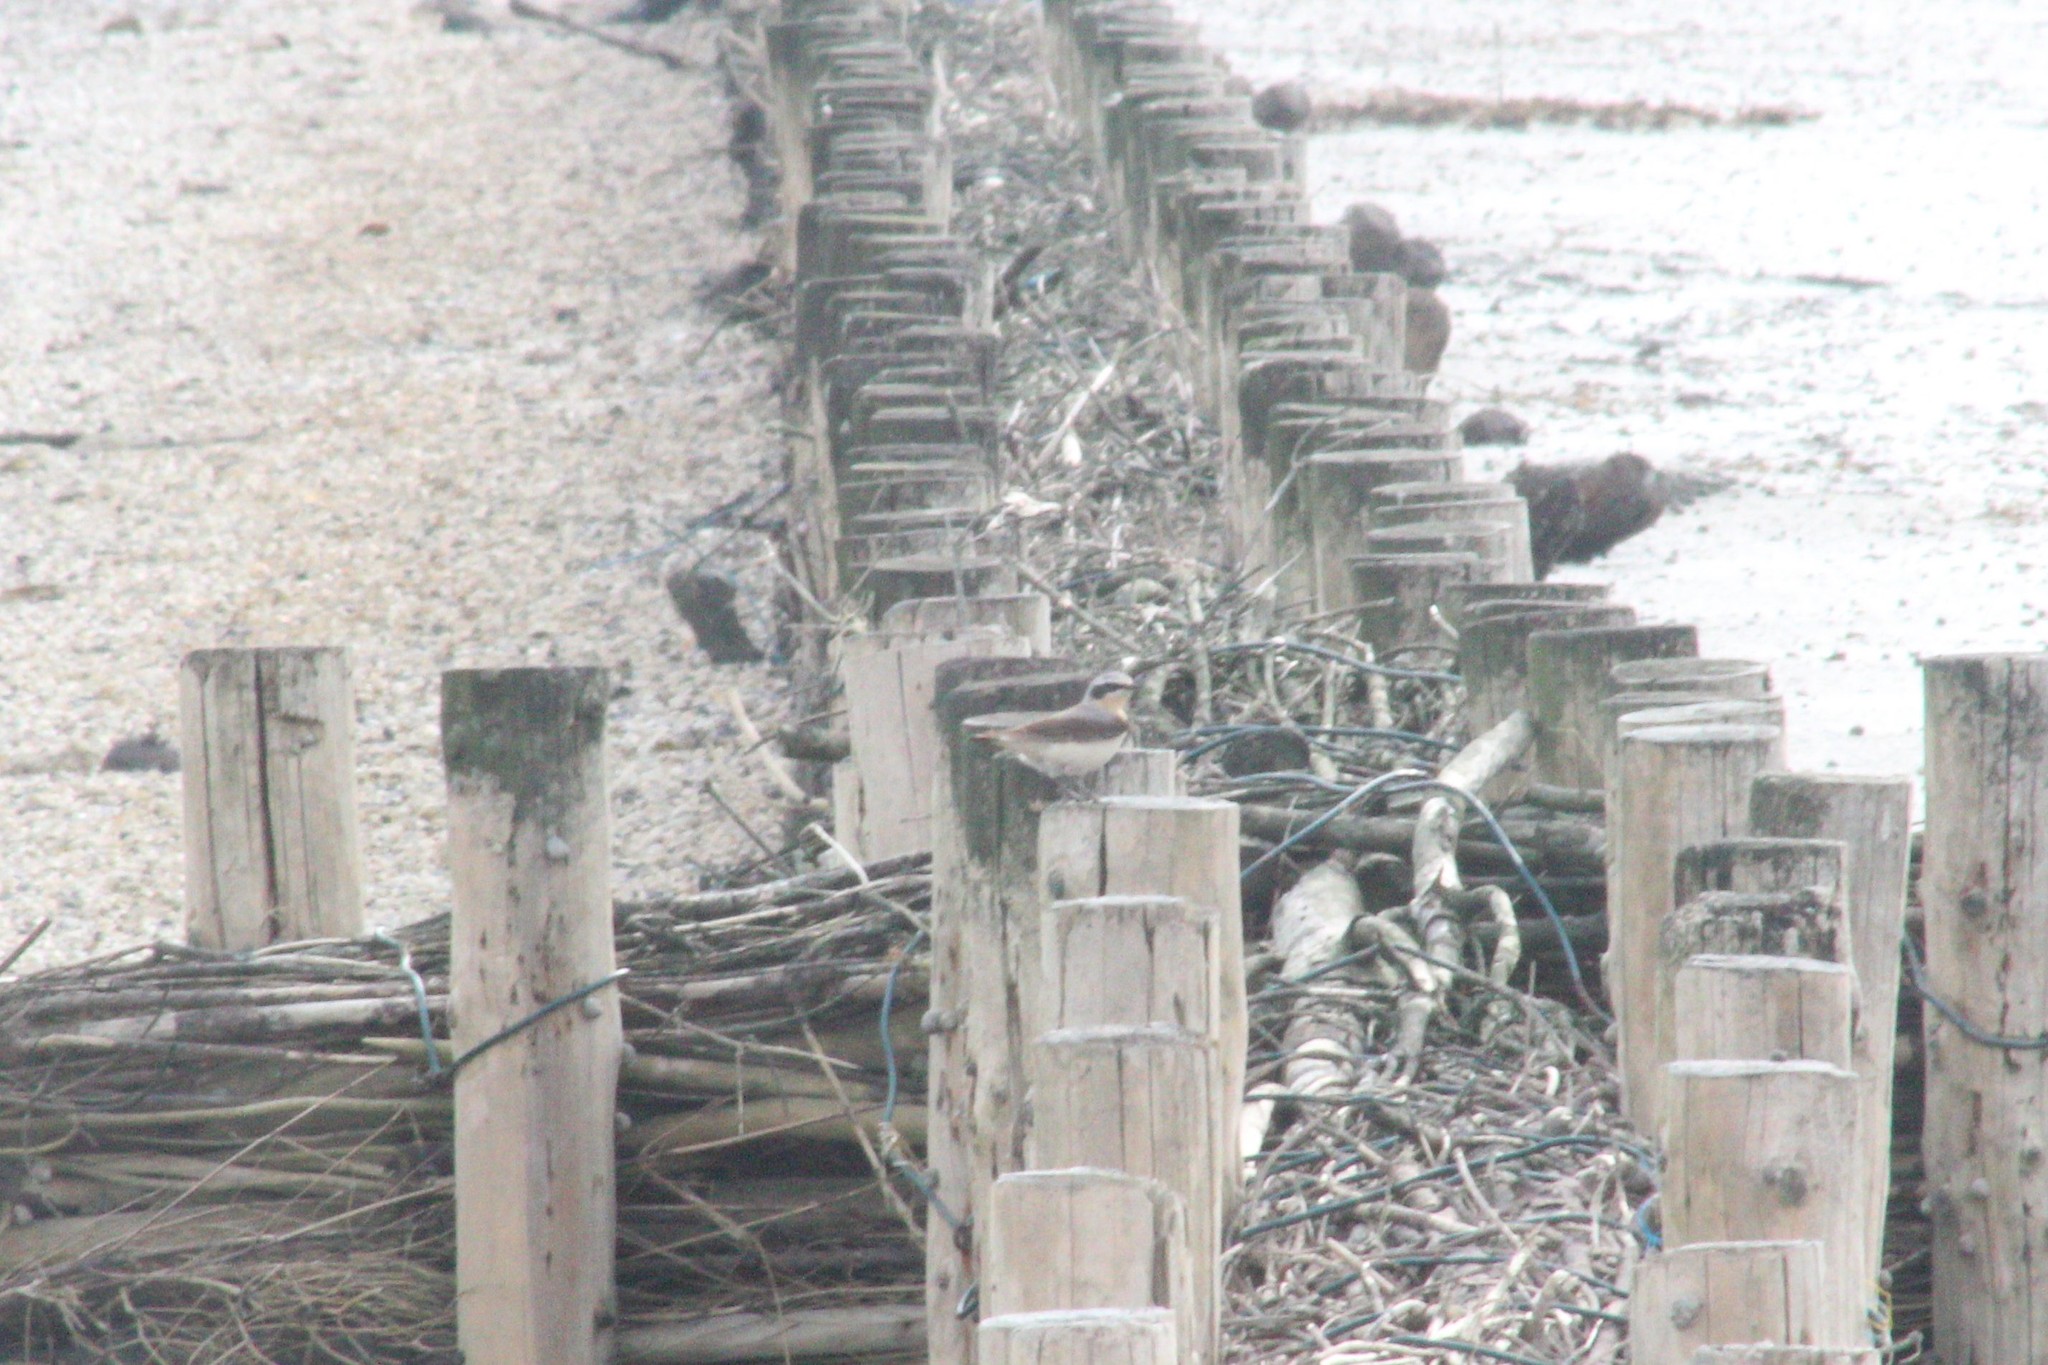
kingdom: Animalia
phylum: Chordata
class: Aves
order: Passeriformes
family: Muscicapidae
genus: Oenanthe
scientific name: Oenanthe oenanthe
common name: Northern wheatear
